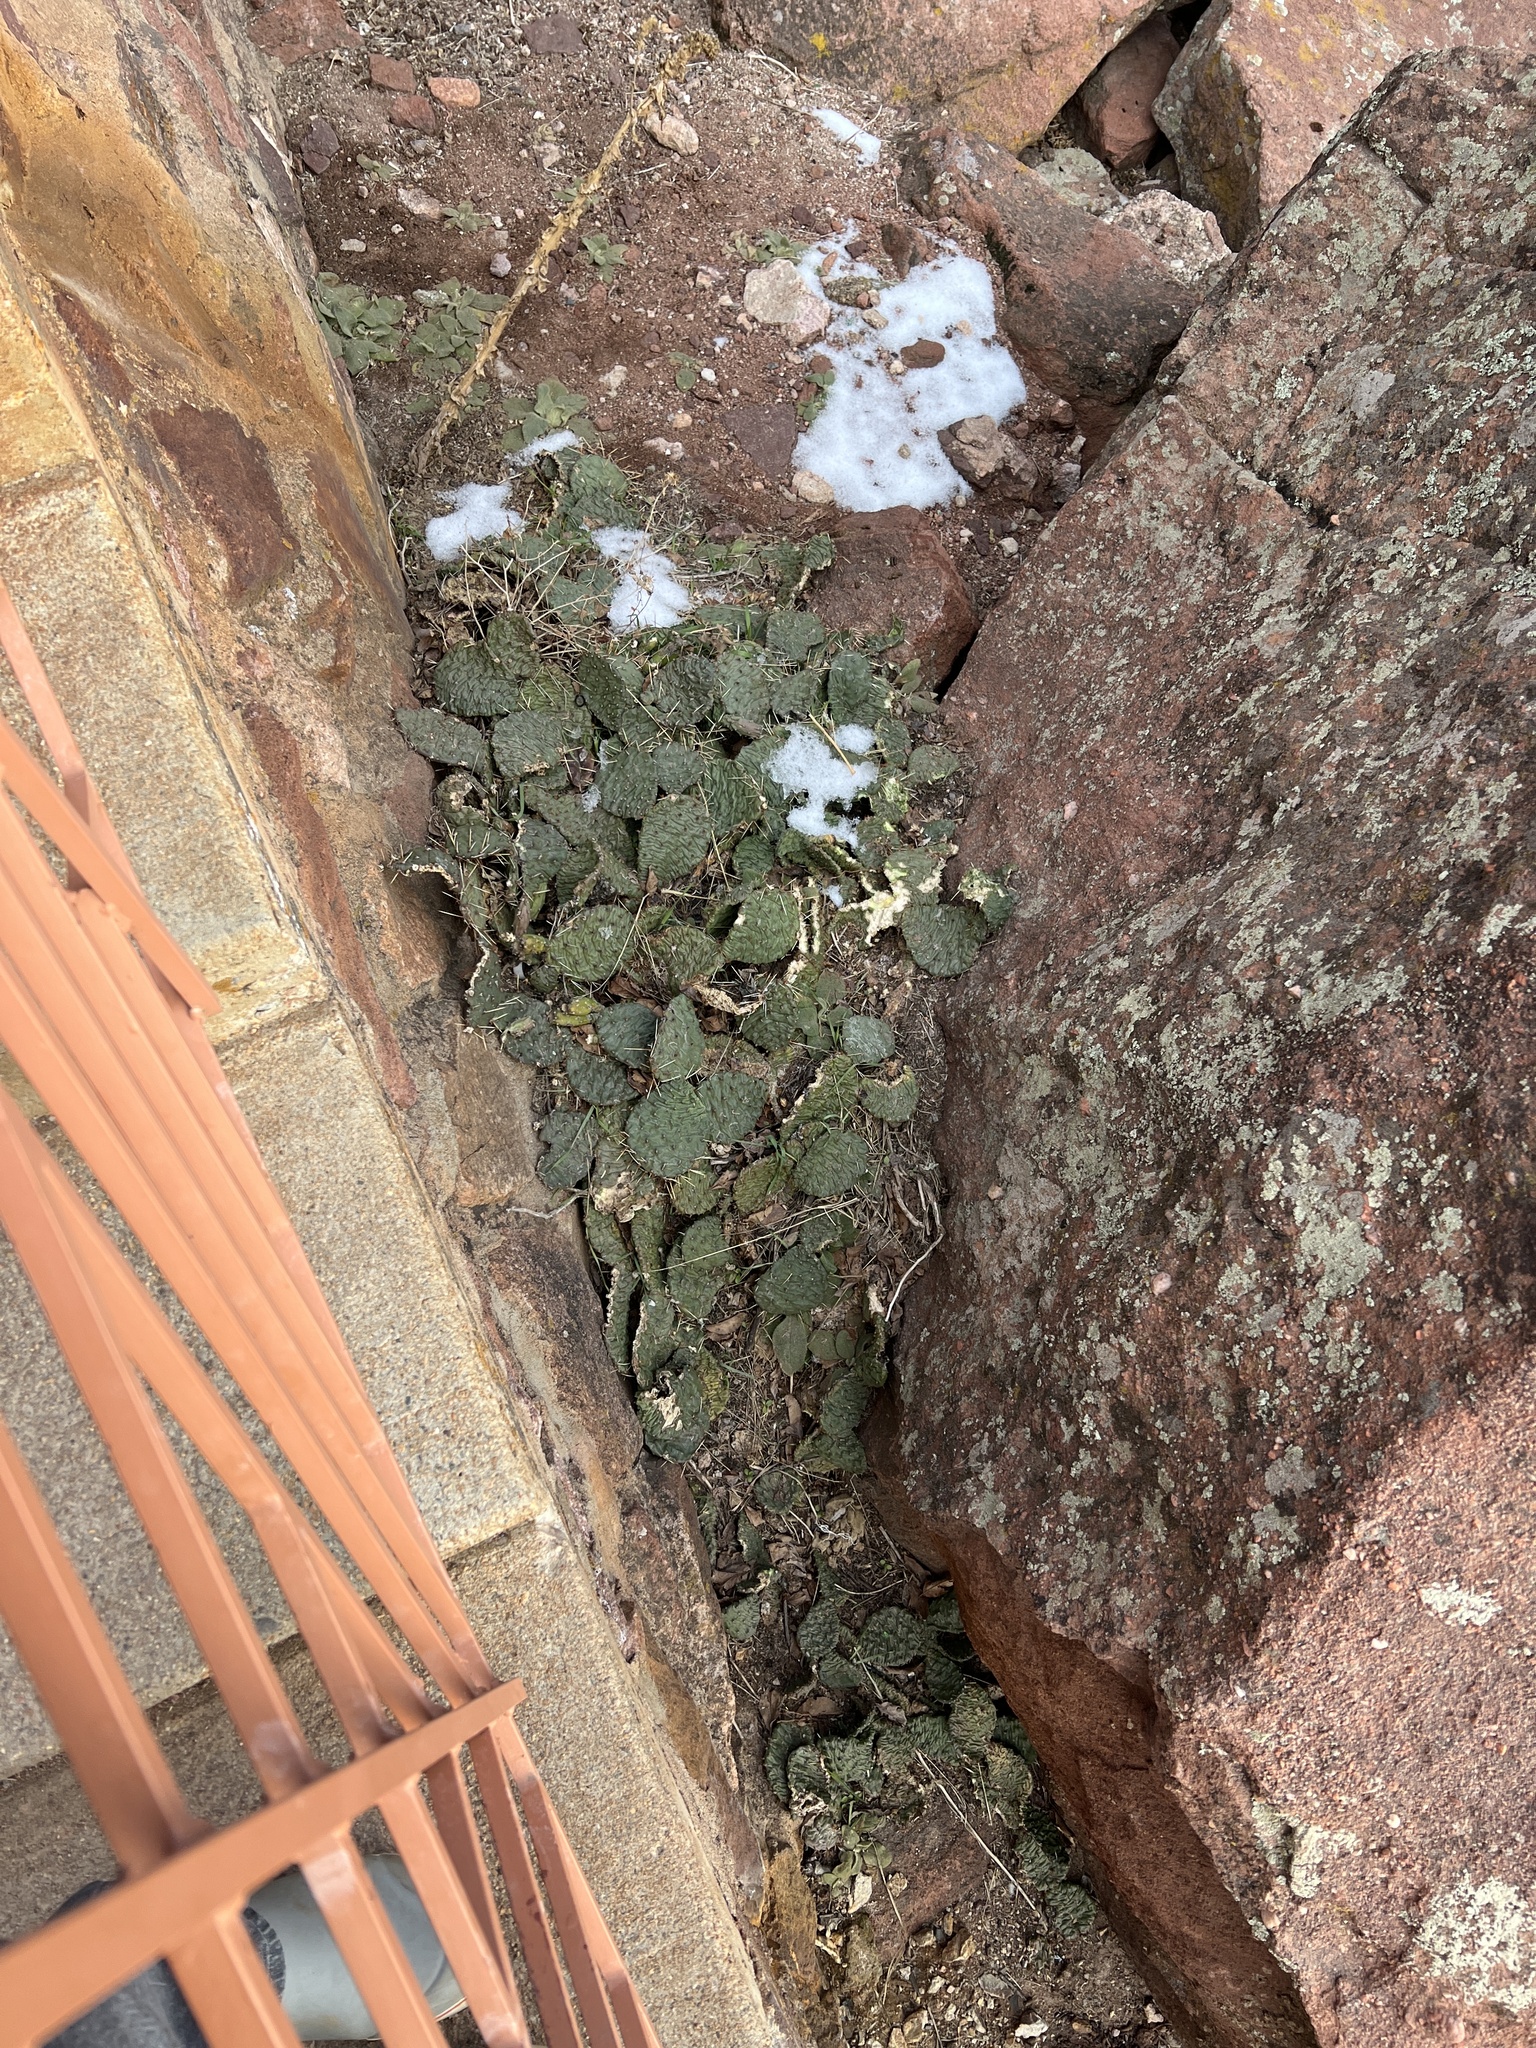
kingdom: Plantae
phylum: Tracheophyta
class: Magnoliopsida
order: Caryophyllales
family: Cactaceae
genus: Opuntia
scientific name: Opuntia macrorhiza
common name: Grassland pricklypear
